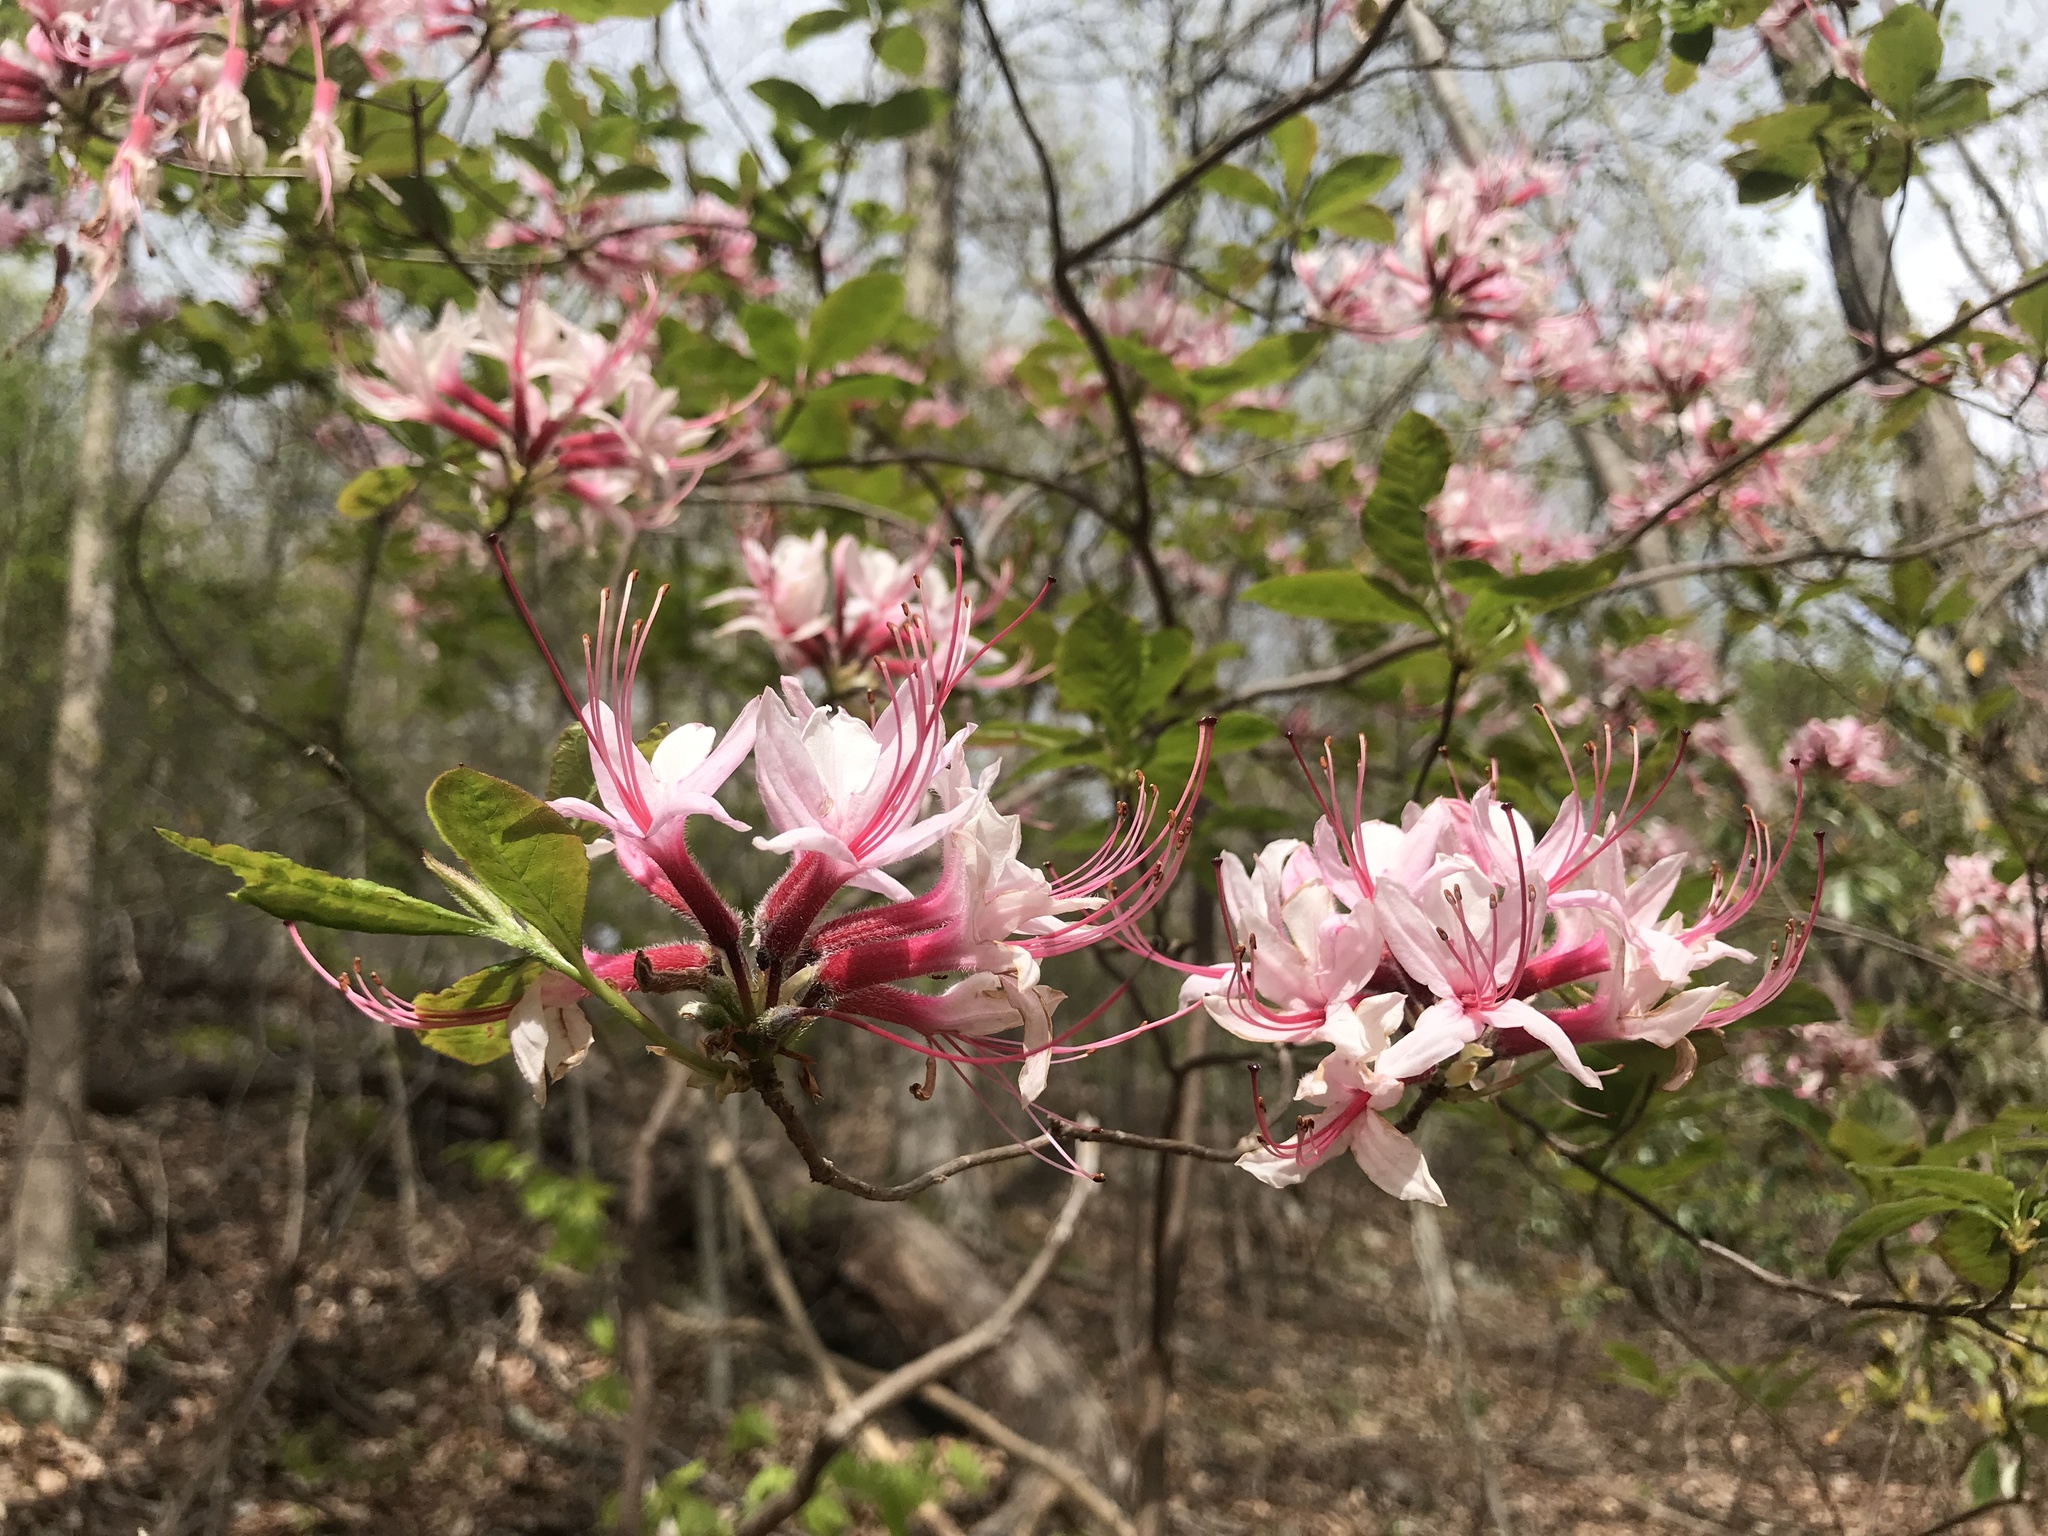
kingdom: Plantae
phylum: Tracheophyta
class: Magnoliopsida
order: Ericales
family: Ericaceae
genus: Rhododendron
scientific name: Rhododendron periclymenoides
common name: Election-pink
